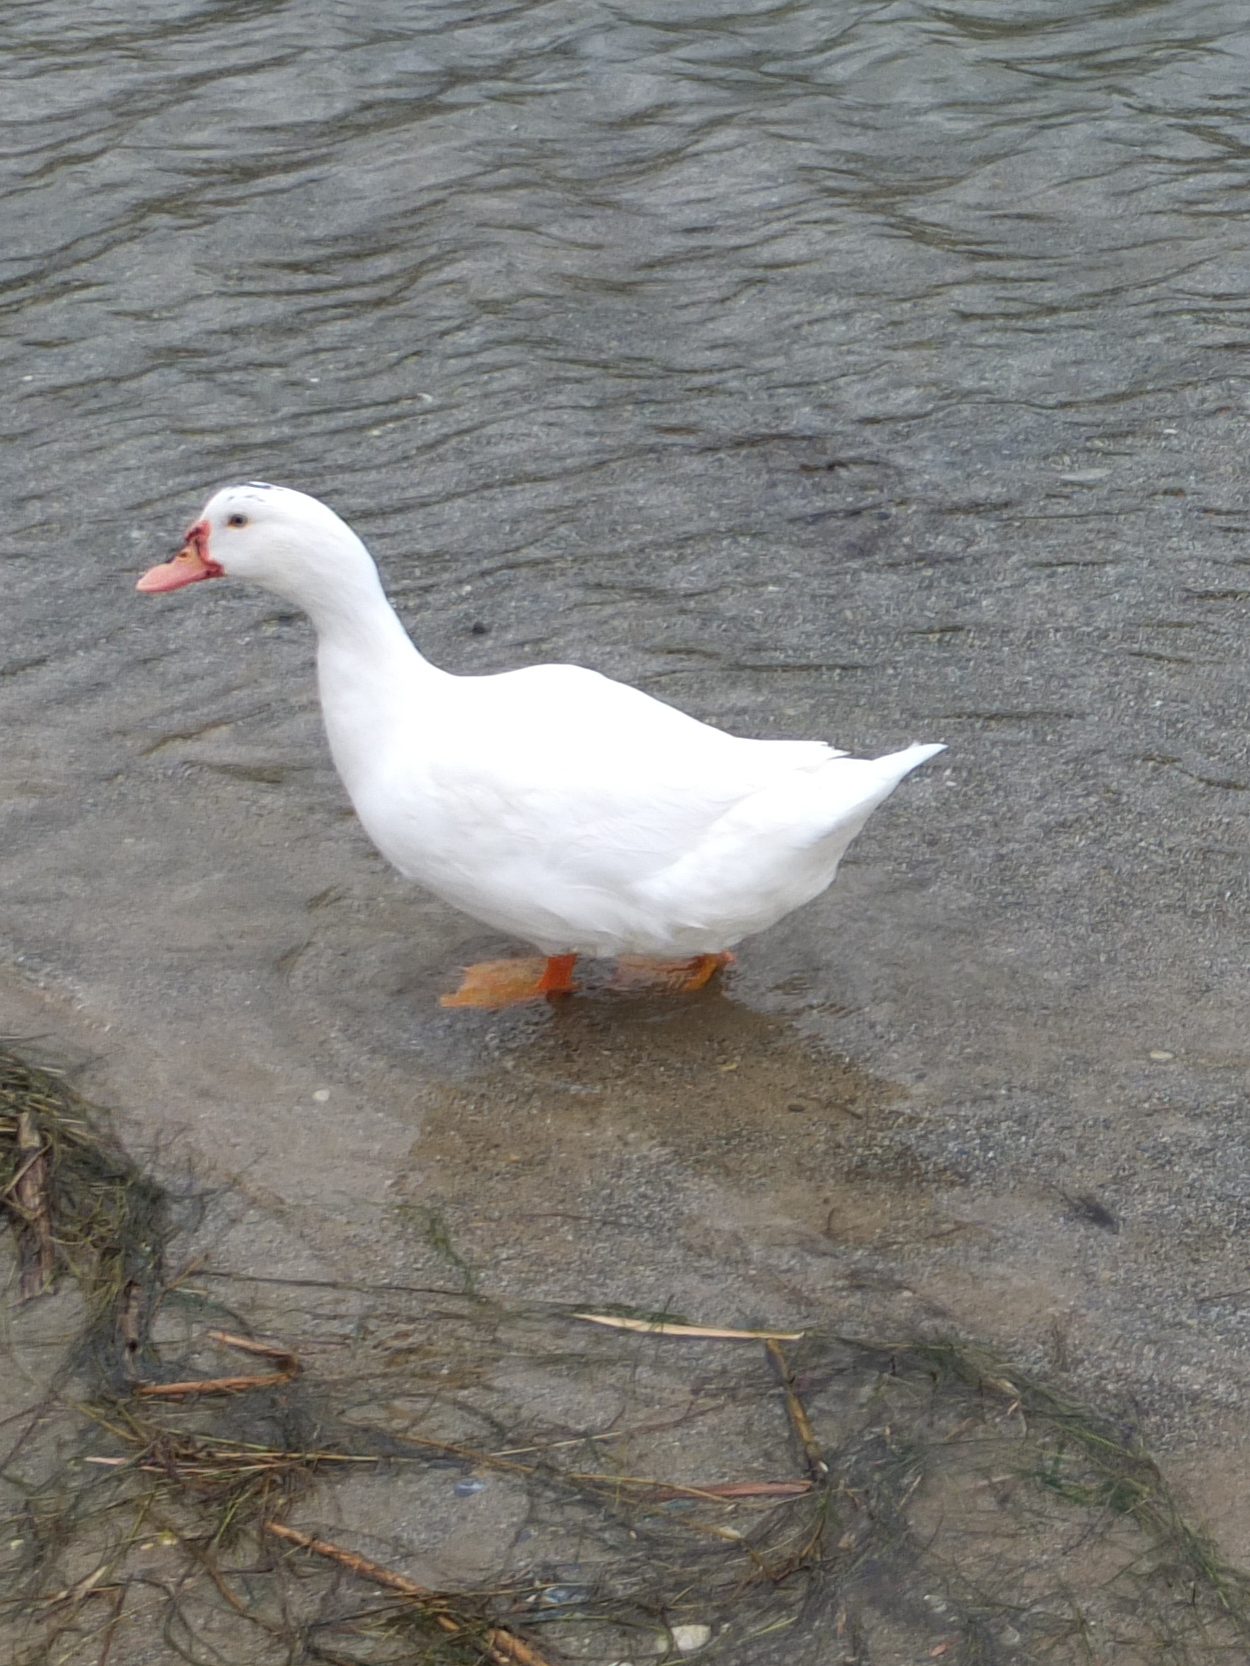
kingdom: Animalia
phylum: Chordata
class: Aves
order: Anseriformes
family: Anatidae
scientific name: Anatidae
